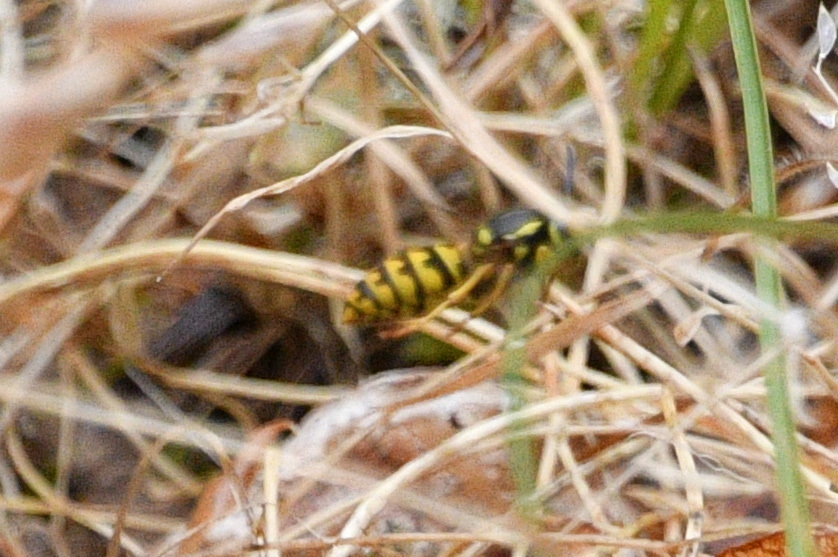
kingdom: Animalia
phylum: Arthropoda
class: Insecta
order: Hymenoptera
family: Vespidae
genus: Vespula
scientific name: Vespula pensylvanica
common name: Western yellowjacket
